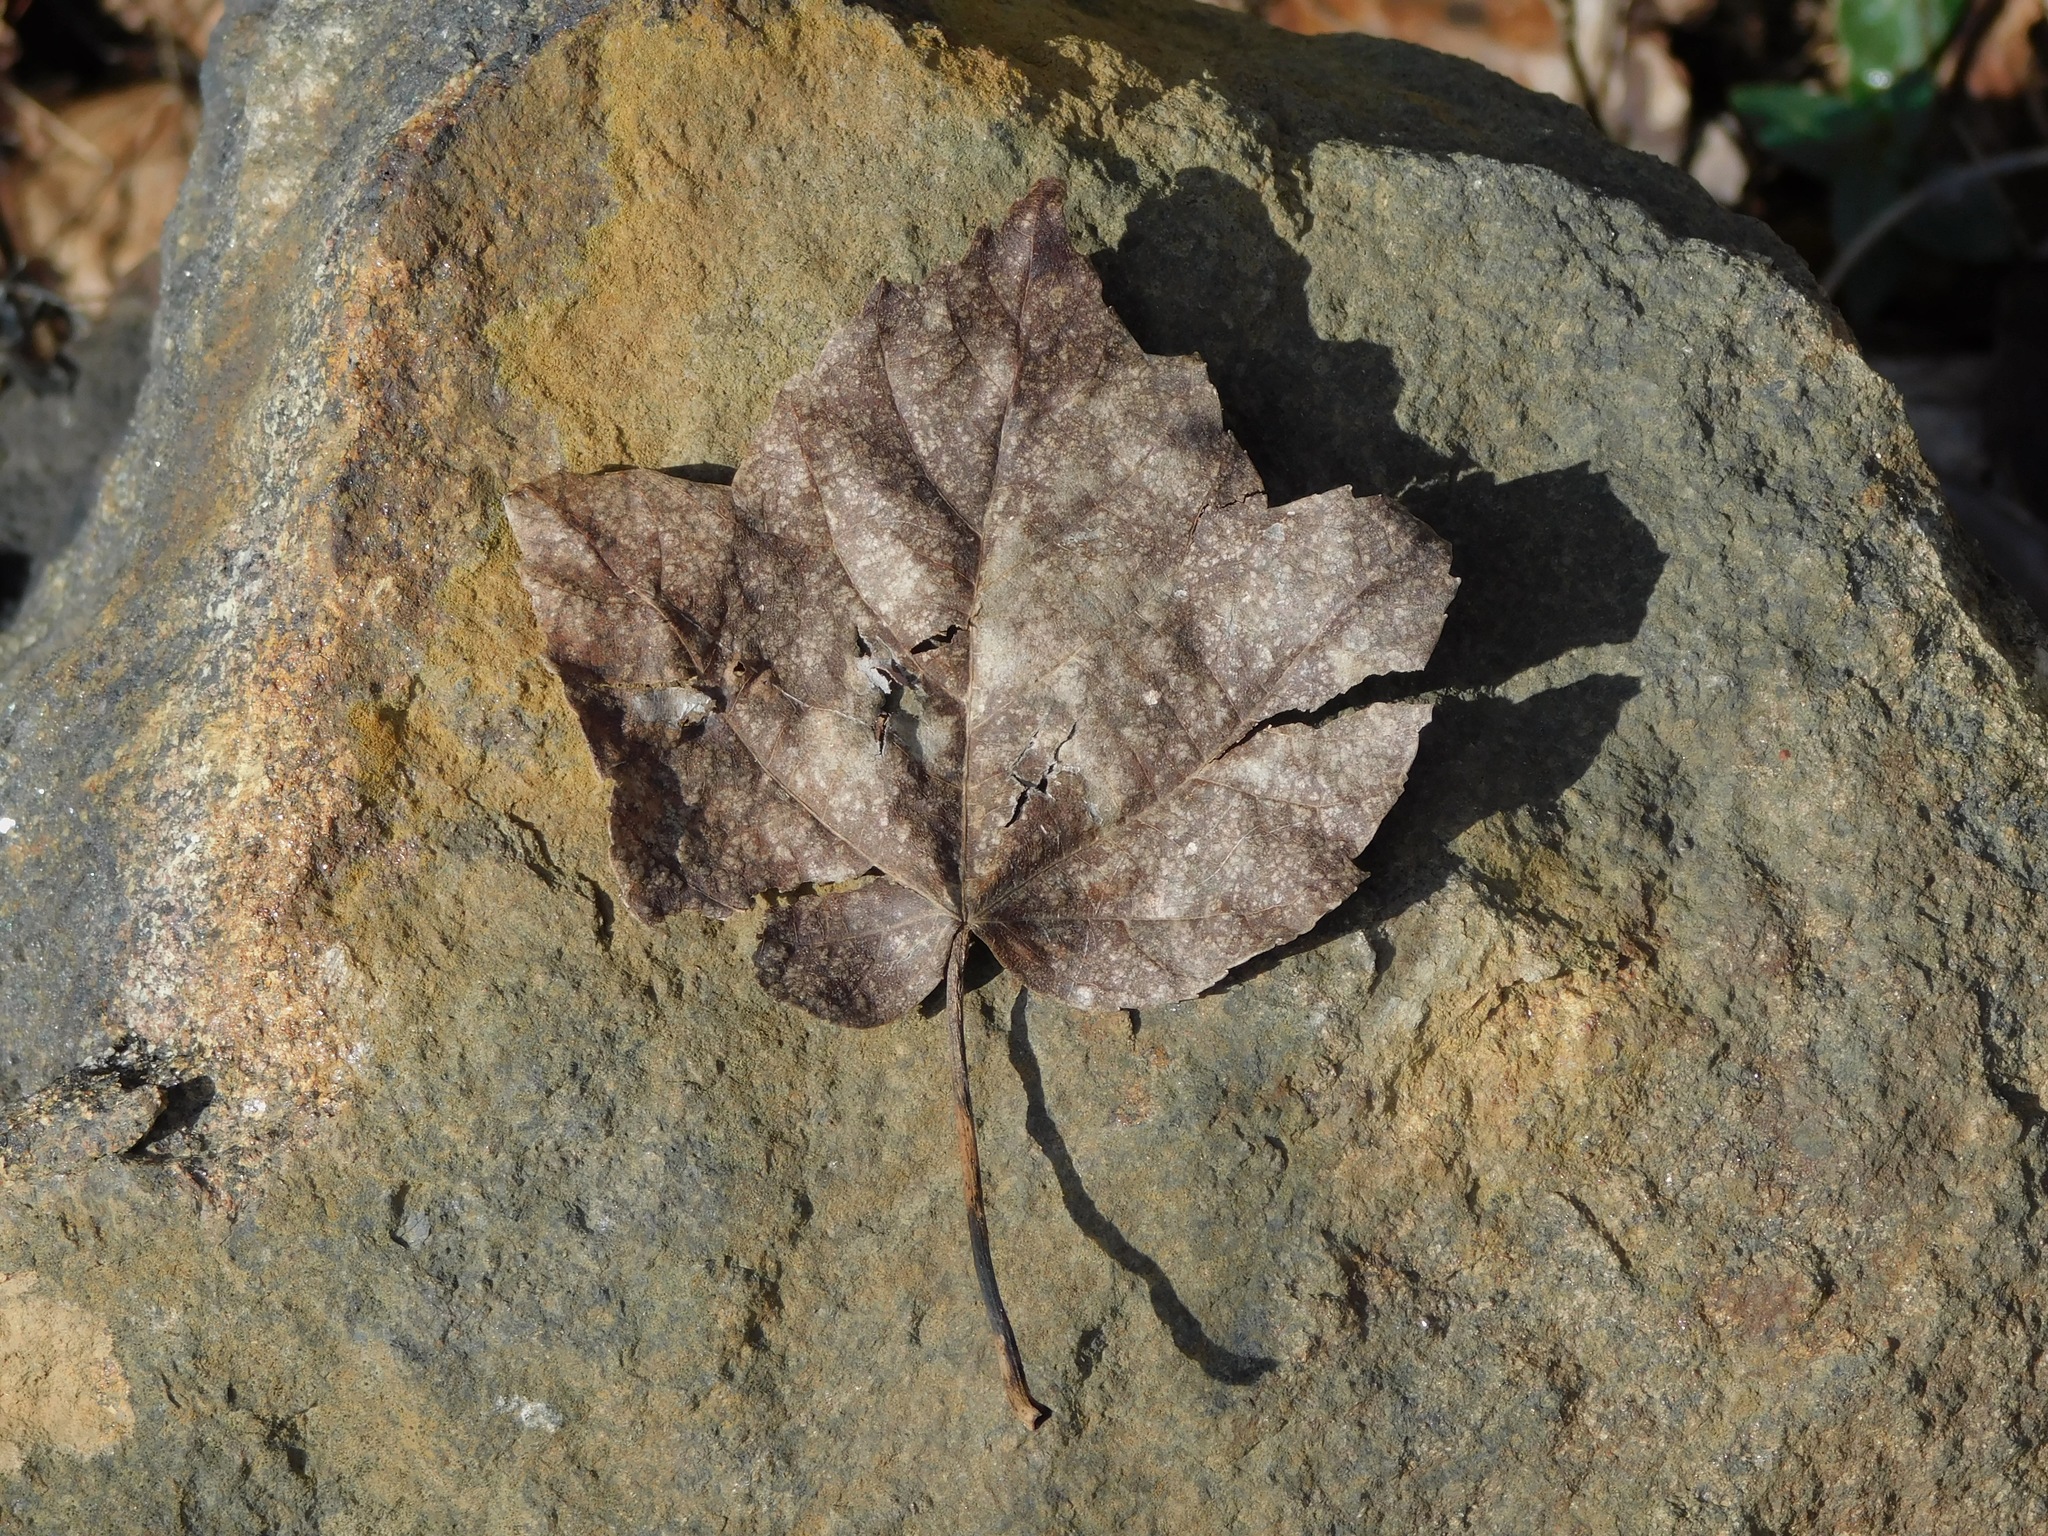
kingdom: Plantae
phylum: Tracheophyta
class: Magnoliopsida
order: Sapindales
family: Sapindaceae
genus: Acer
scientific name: Acer rubrum
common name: Red maple
